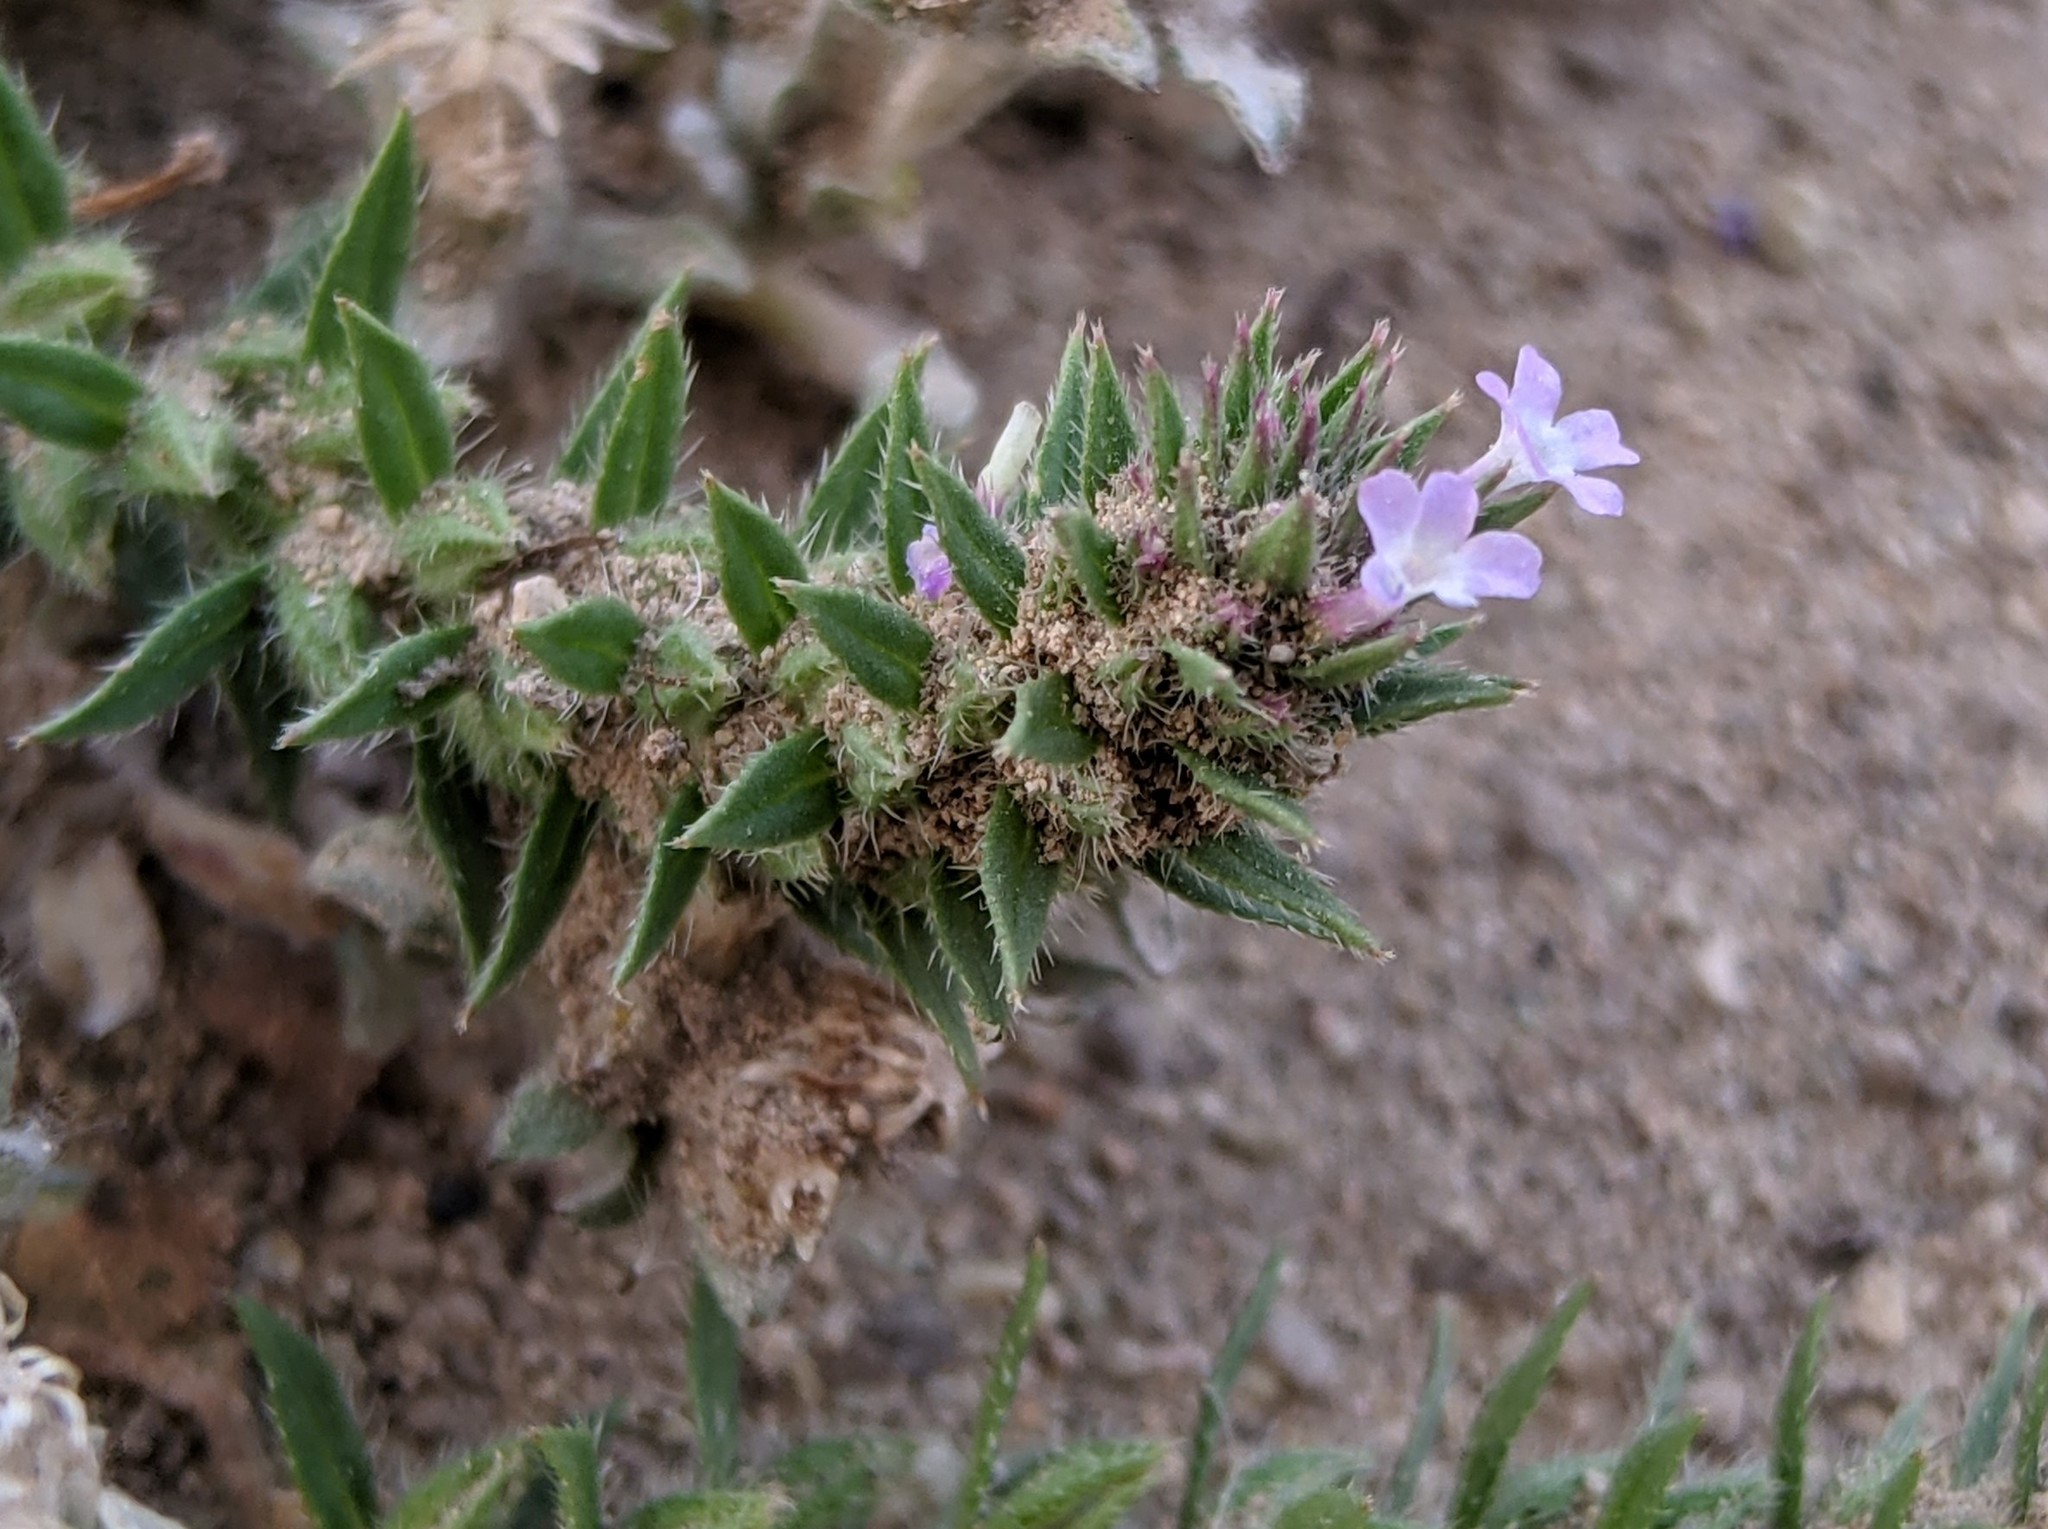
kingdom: Plantae
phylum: Tracheophyta
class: Magnoliopsida
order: Lamiales
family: Verbenaceae
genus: Verbena
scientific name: Verbena bracteata
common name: Bracted vervain
